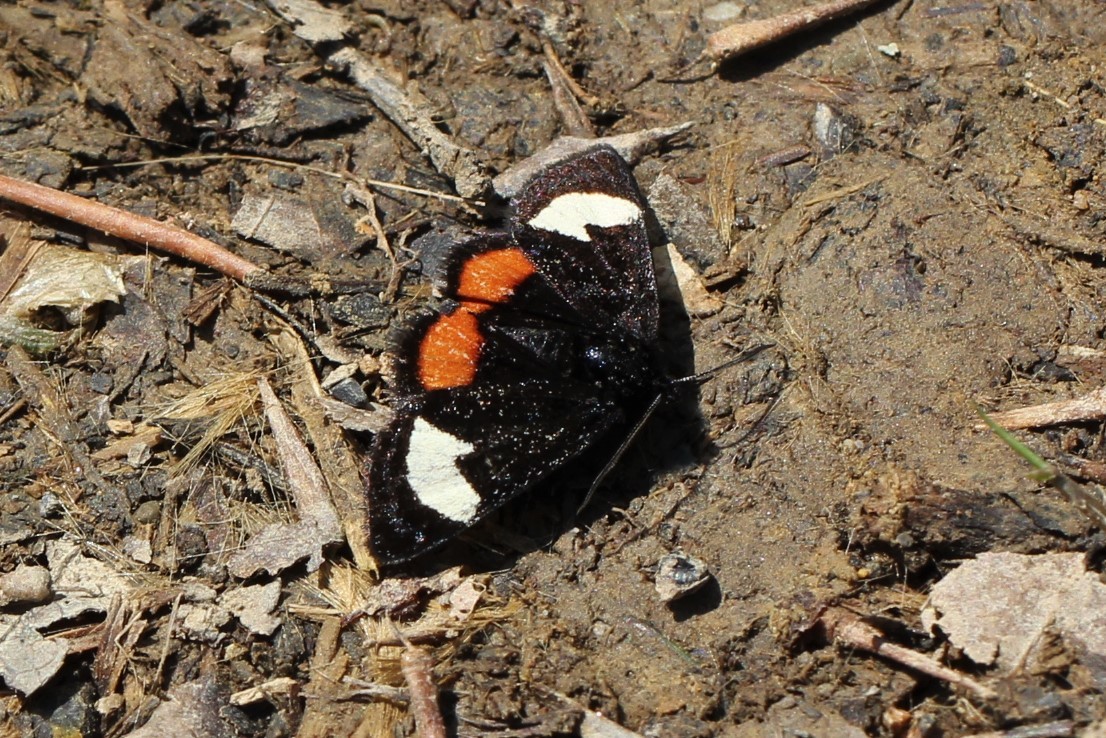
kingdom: Animalia
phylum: Arthropoda
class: Insecta
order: Lepidoptera
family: Noctuidae
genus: Psychomorpha
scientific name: Psychomorpha epimenis
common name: Grapevine epimenis moth
